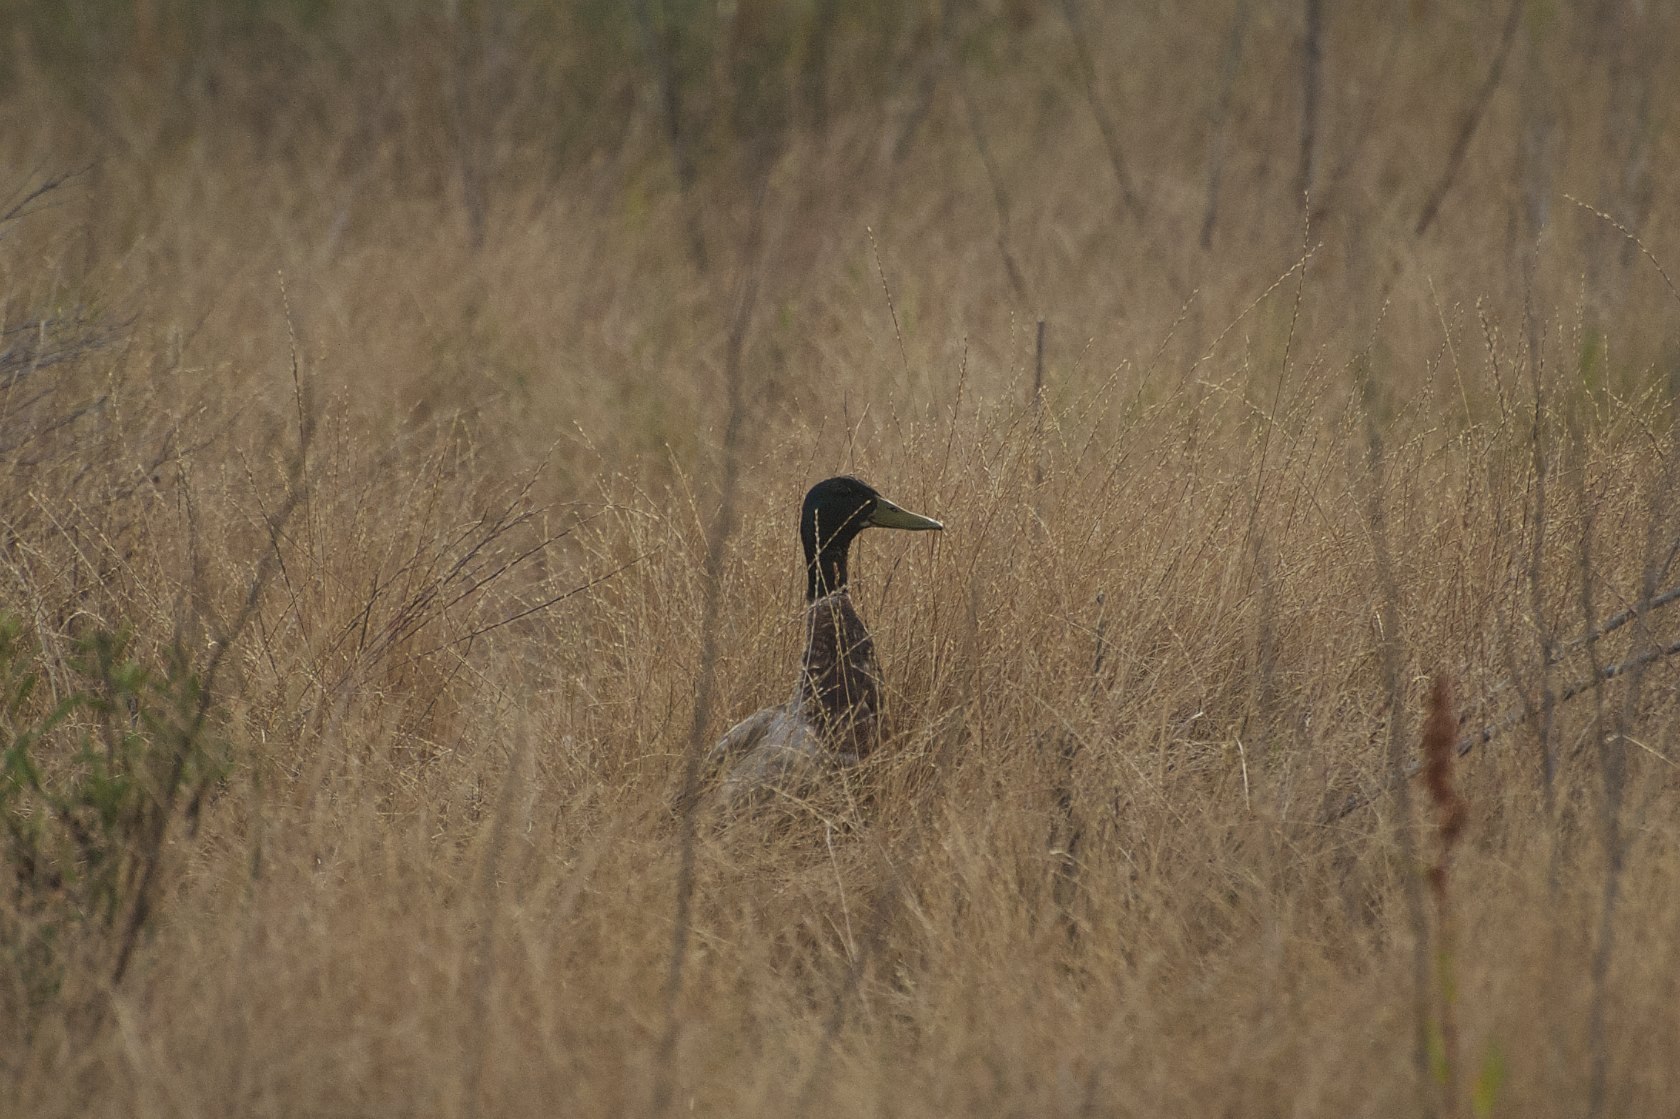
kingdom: Animalia
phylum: Chordata
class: Aves
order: Anseriformes
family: Anatidae
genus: Anas
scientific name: Anas platyrhynchos
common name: Mallard
